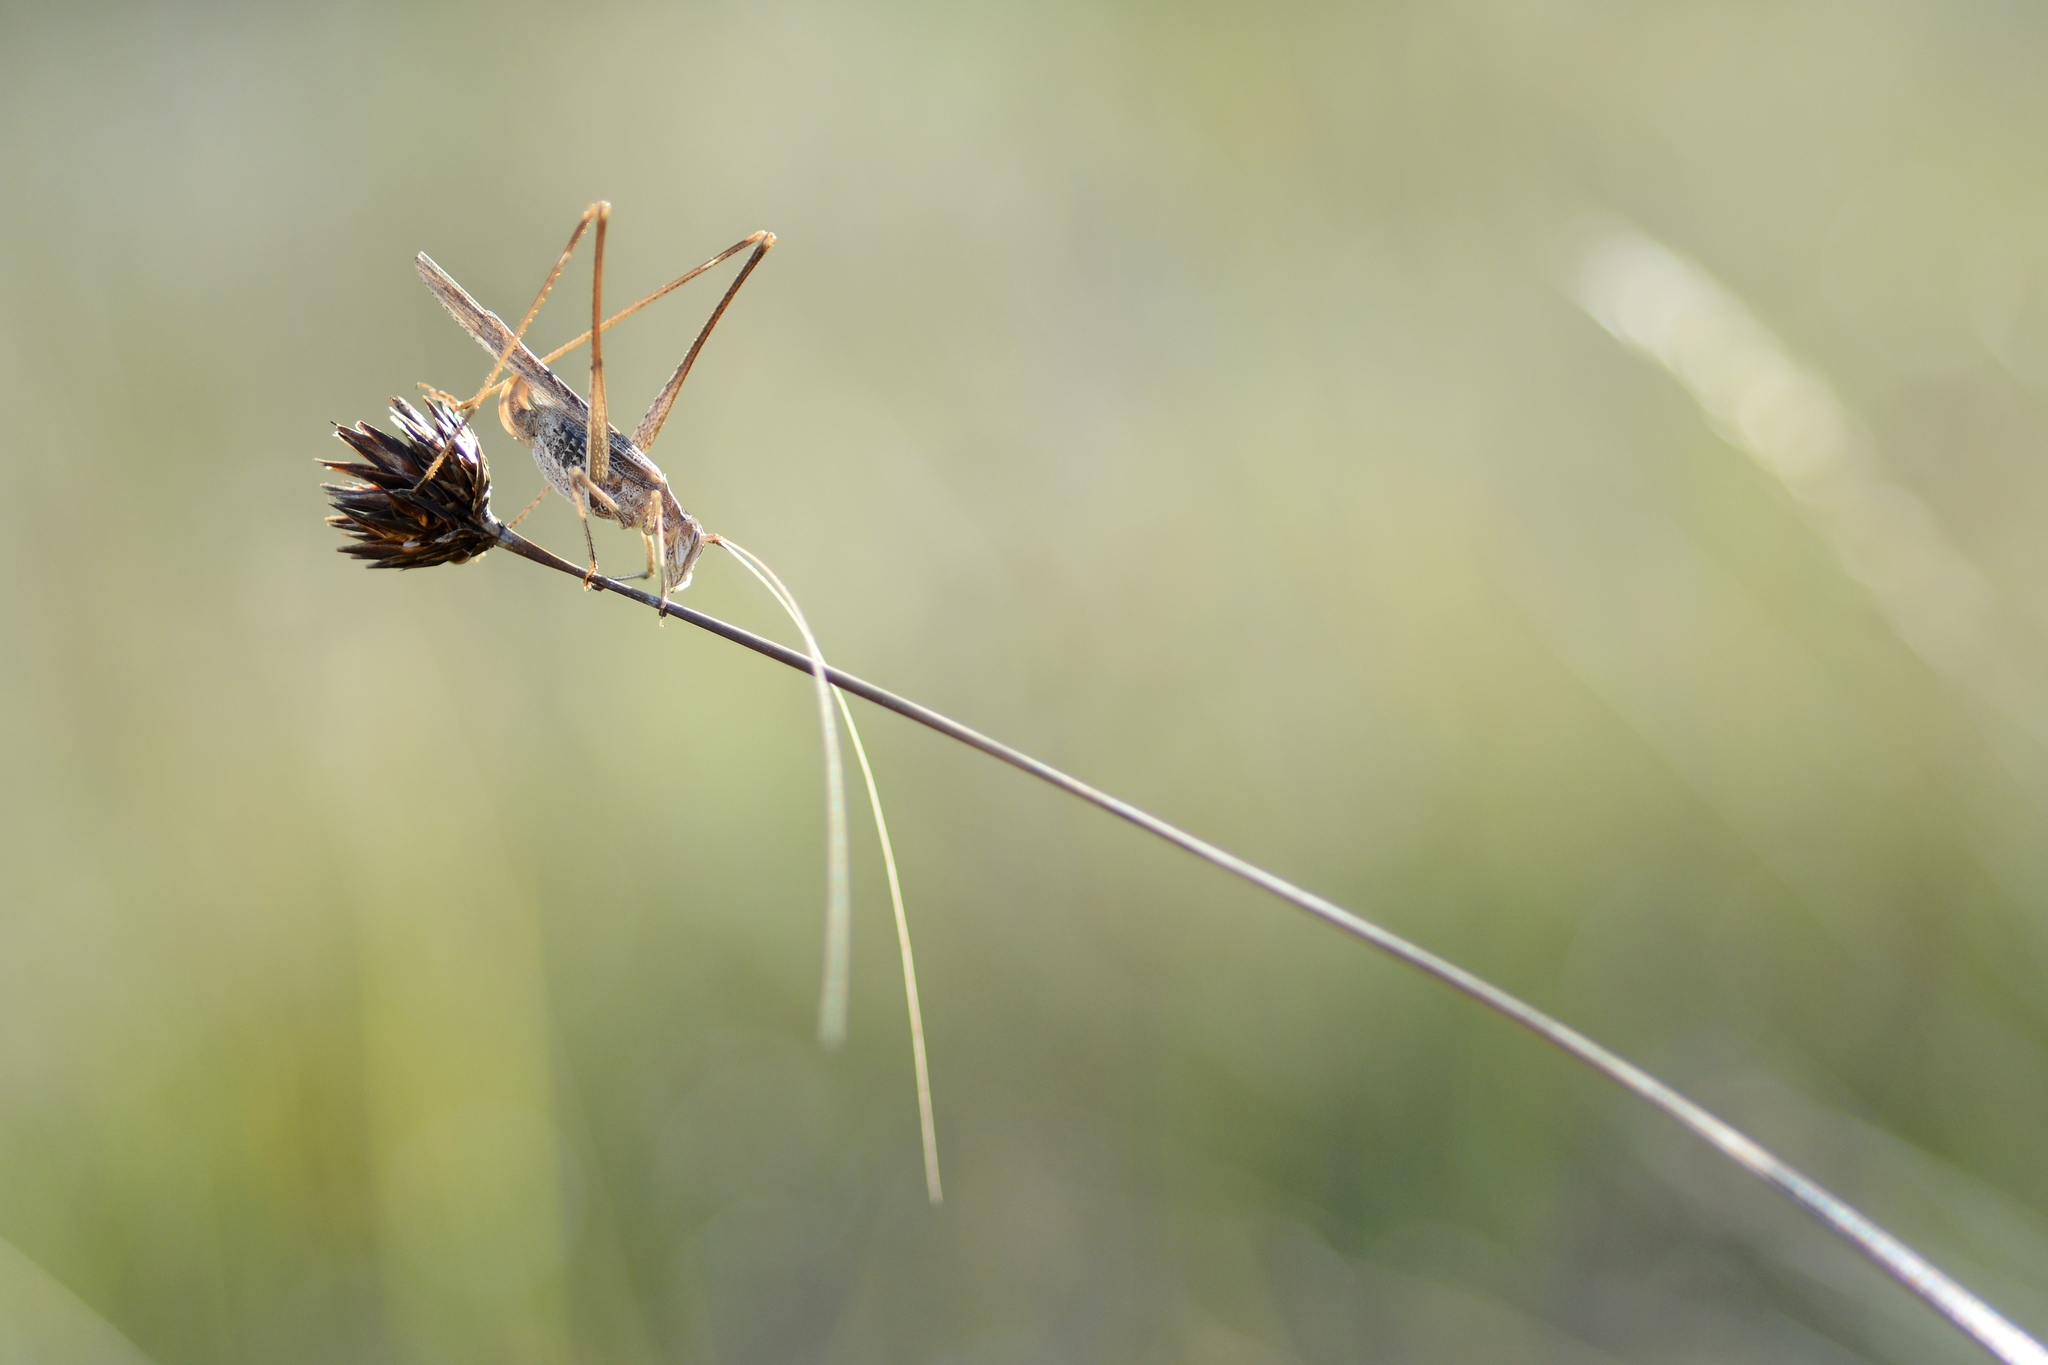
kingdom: Animalia
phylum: Arthropoda
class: Insecta
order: Orthoptera
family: Tettigoniidae
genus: Tylopsis
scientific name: Tylopsis lilifolia
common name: Lily bush-cricket
